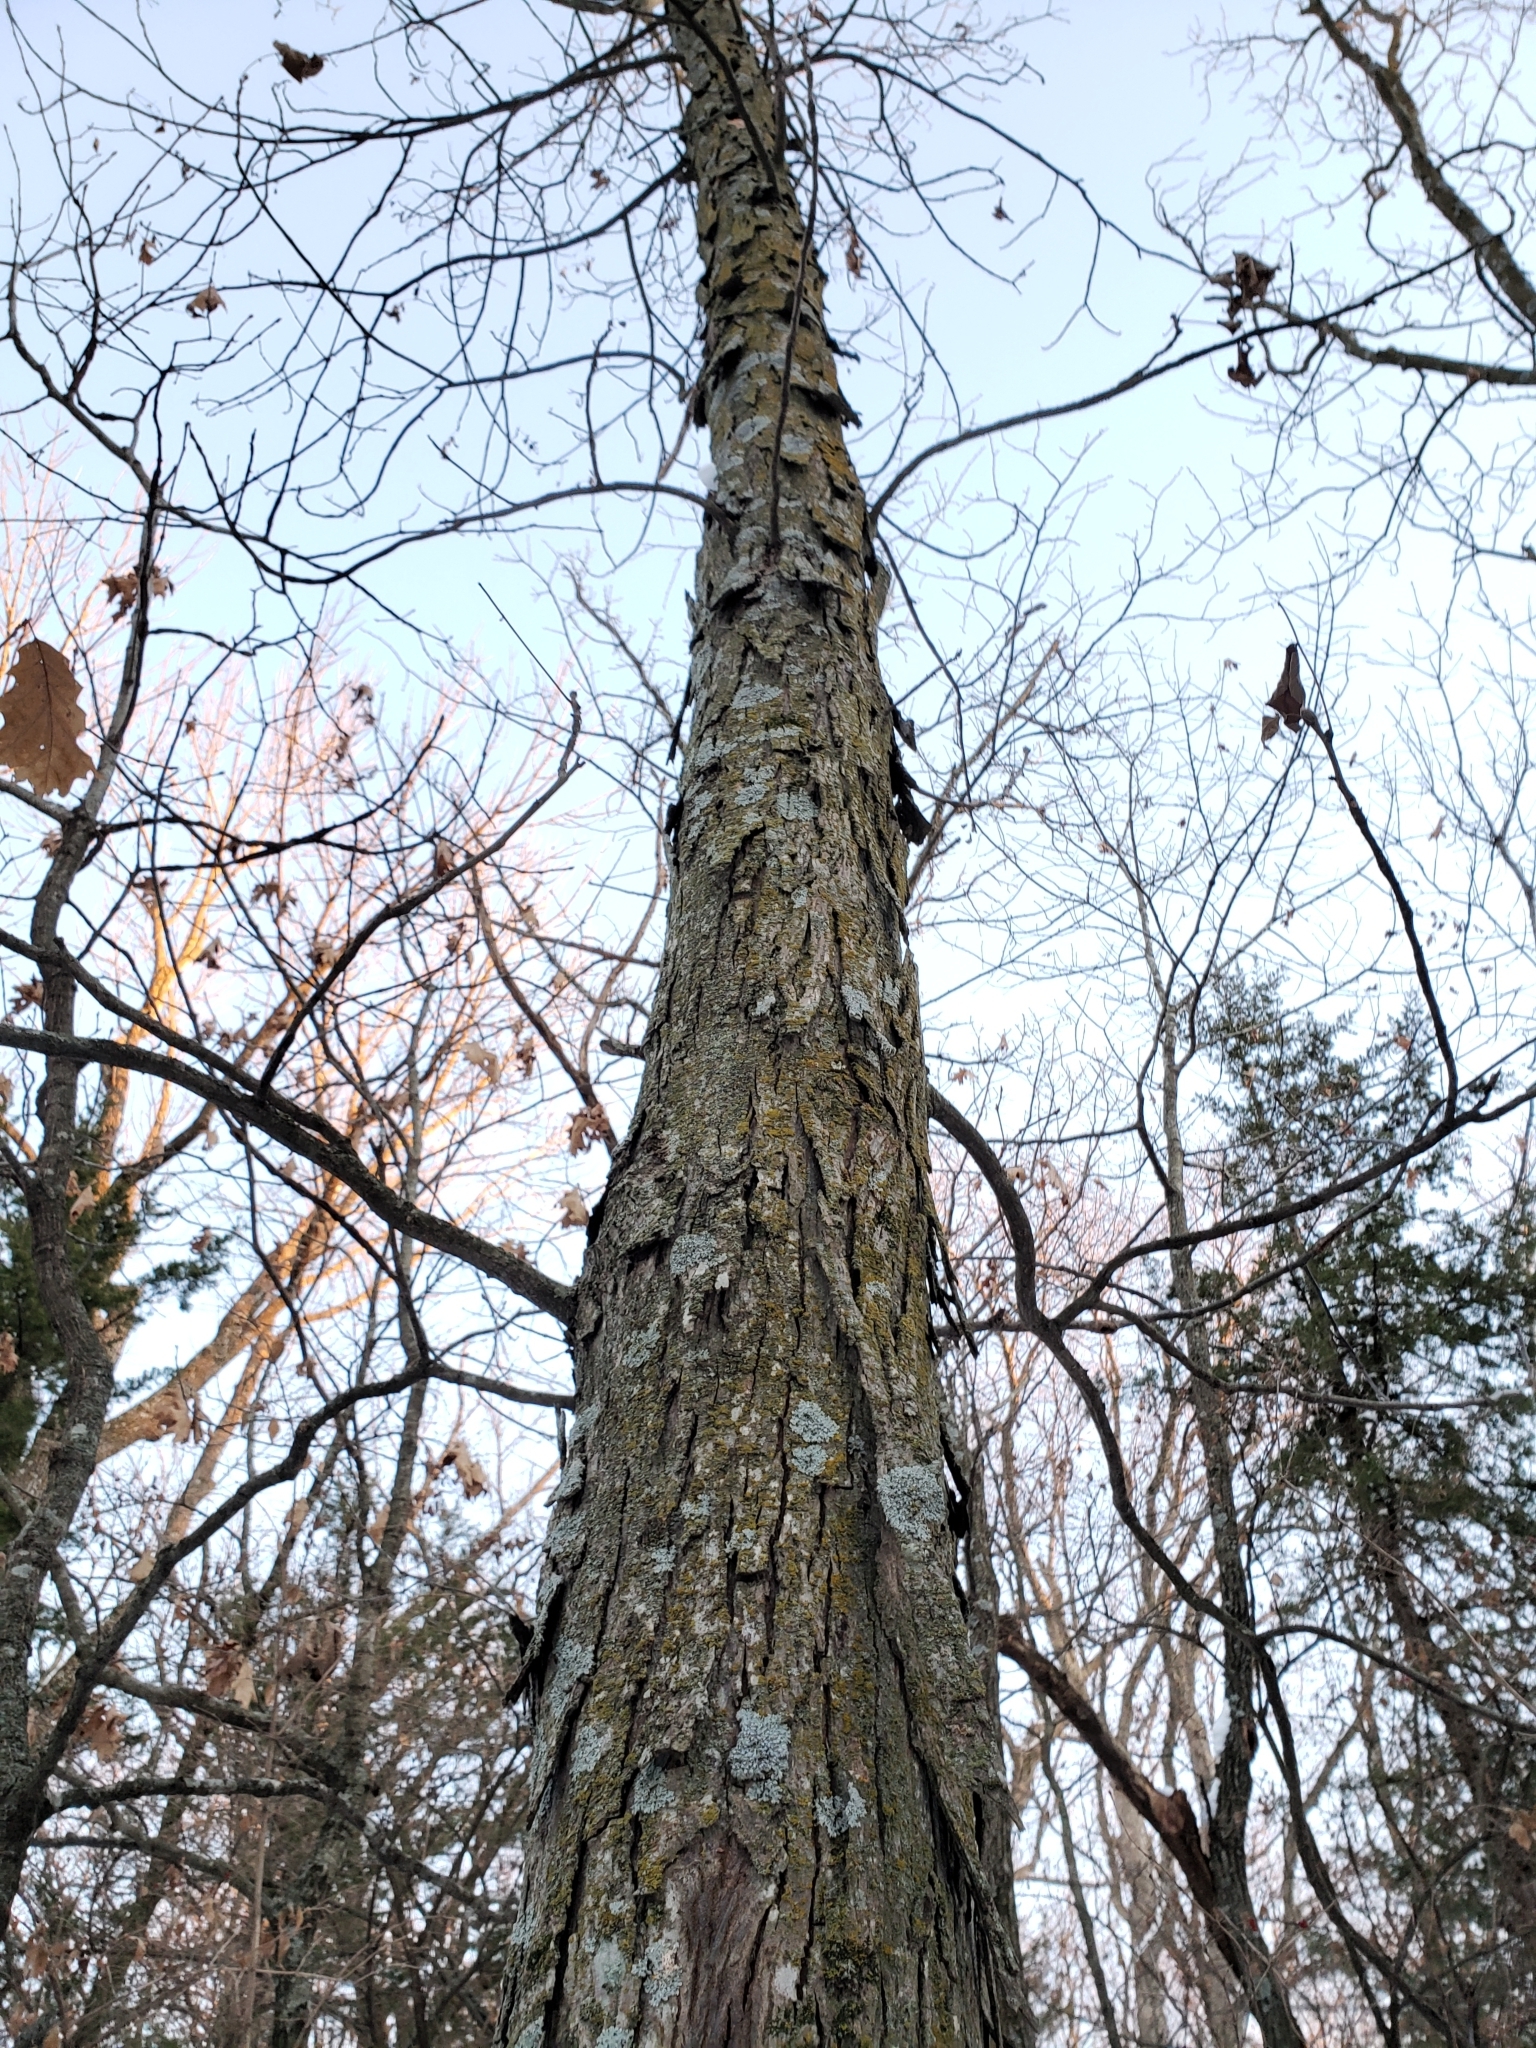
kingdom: Plantae
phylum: Tracheophyta
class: Magnoliopsida
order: Fagales
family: Juglandaceae
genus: Carya
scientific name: Carya ovata
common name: Shagbark hickory
